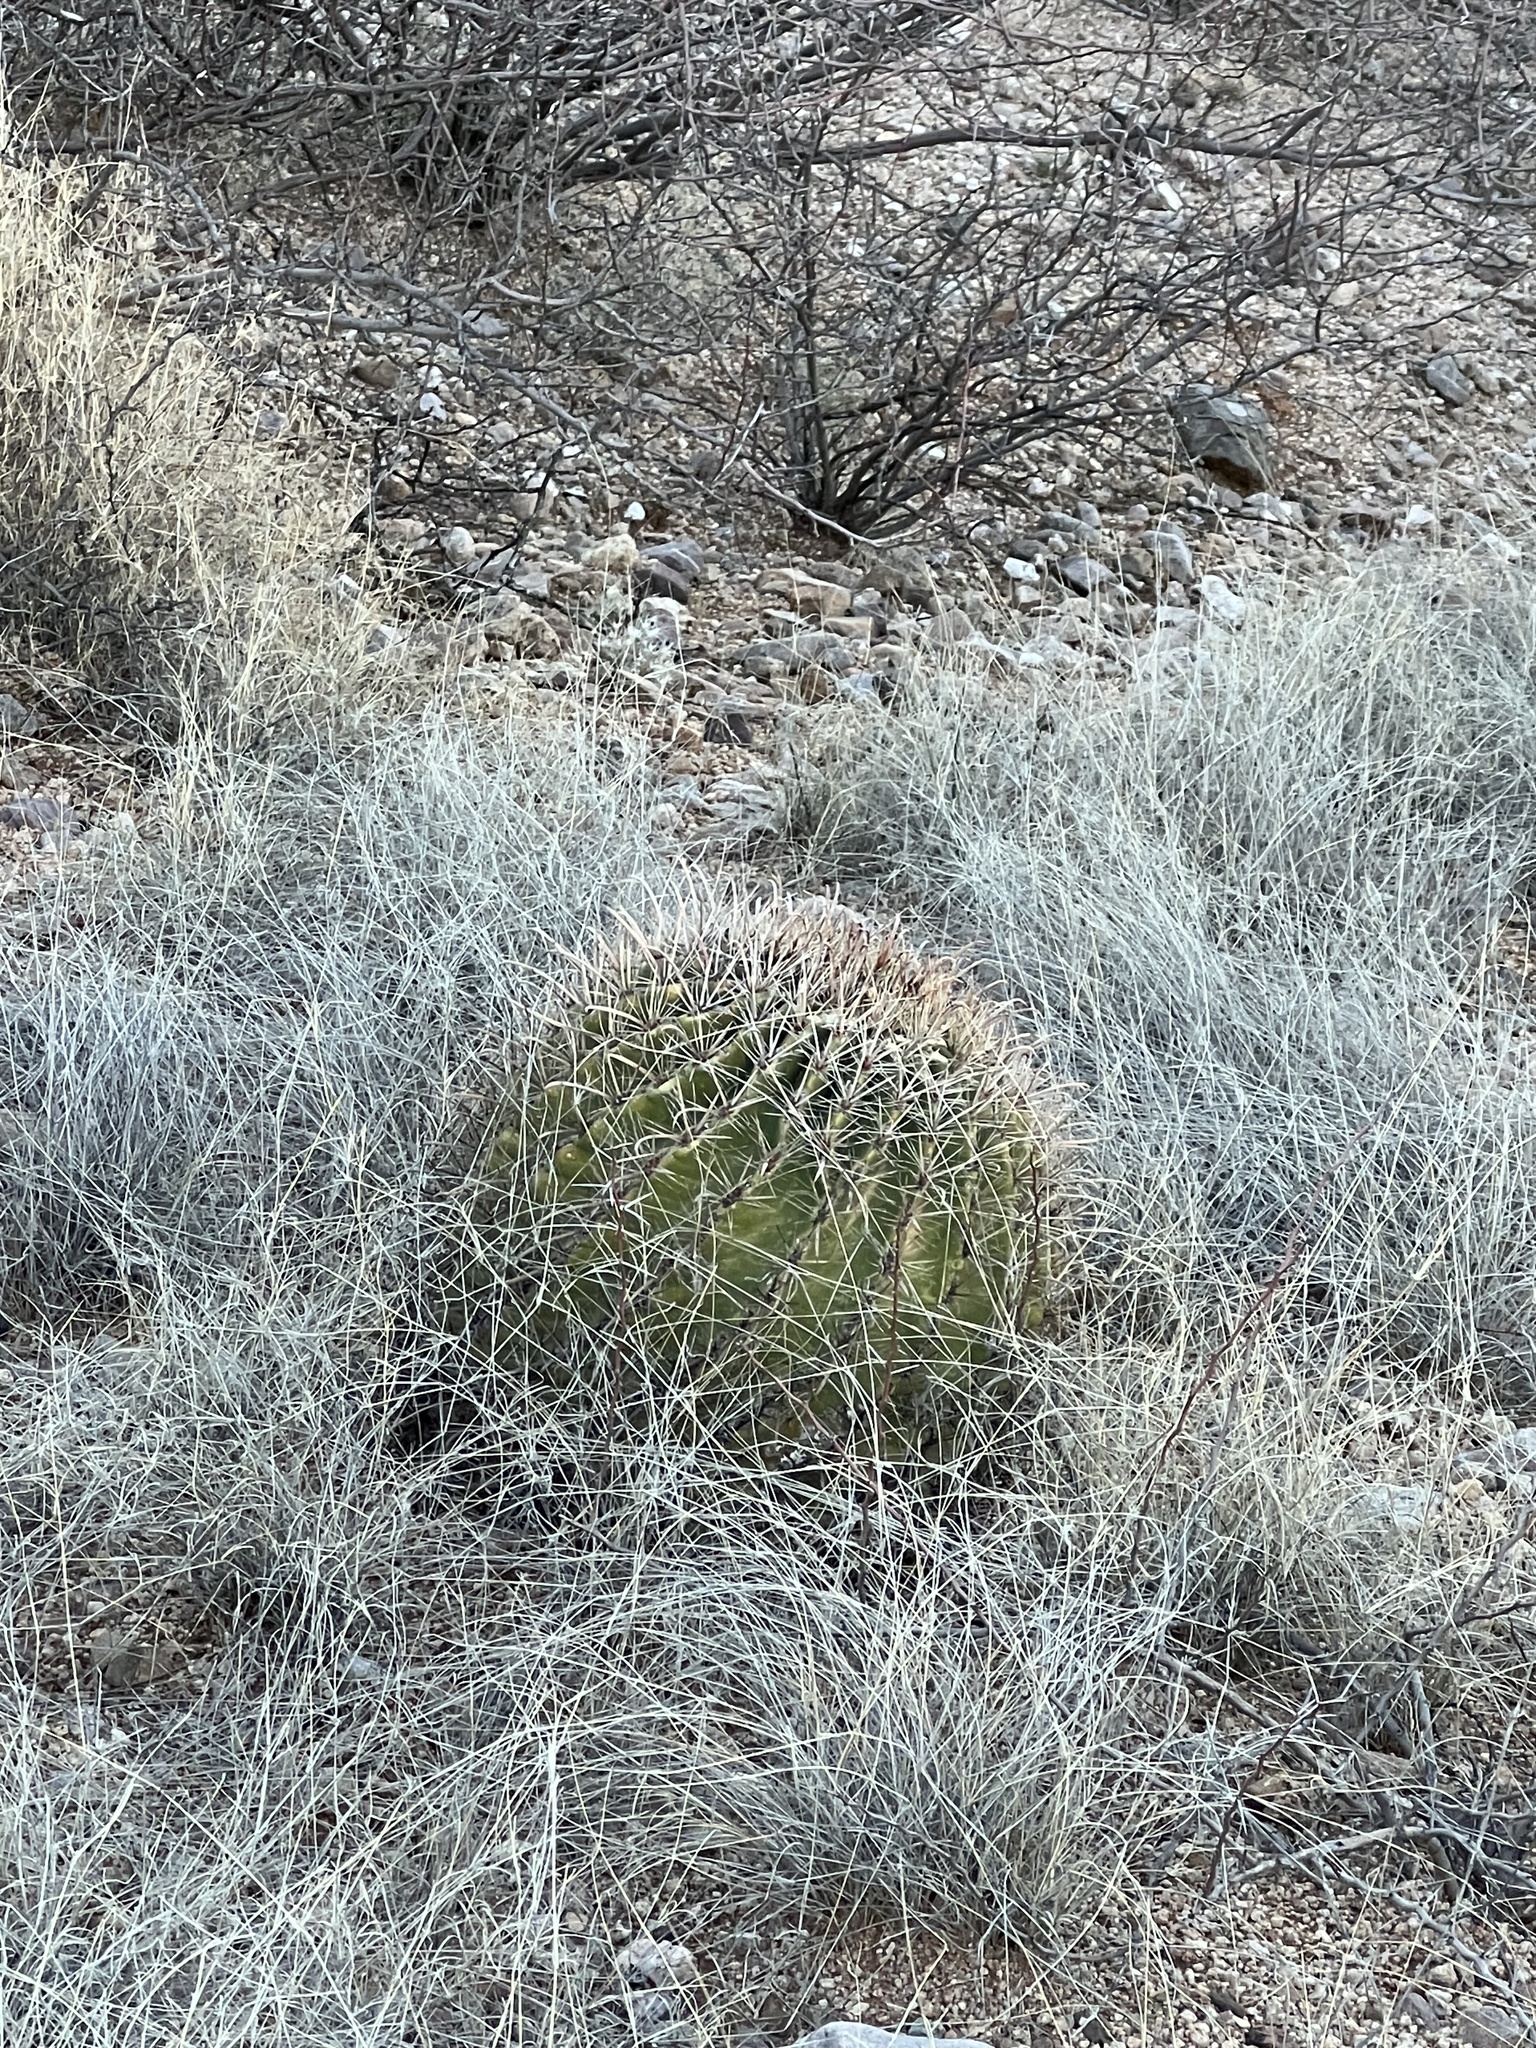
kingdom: Plantae
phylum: Tracheophyta
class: Magnoliopsida
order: Caryophyllales
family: Cactaceae
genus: Ferocactus
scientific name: Ferocactus wislizeni
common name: Candy barrel cactus
